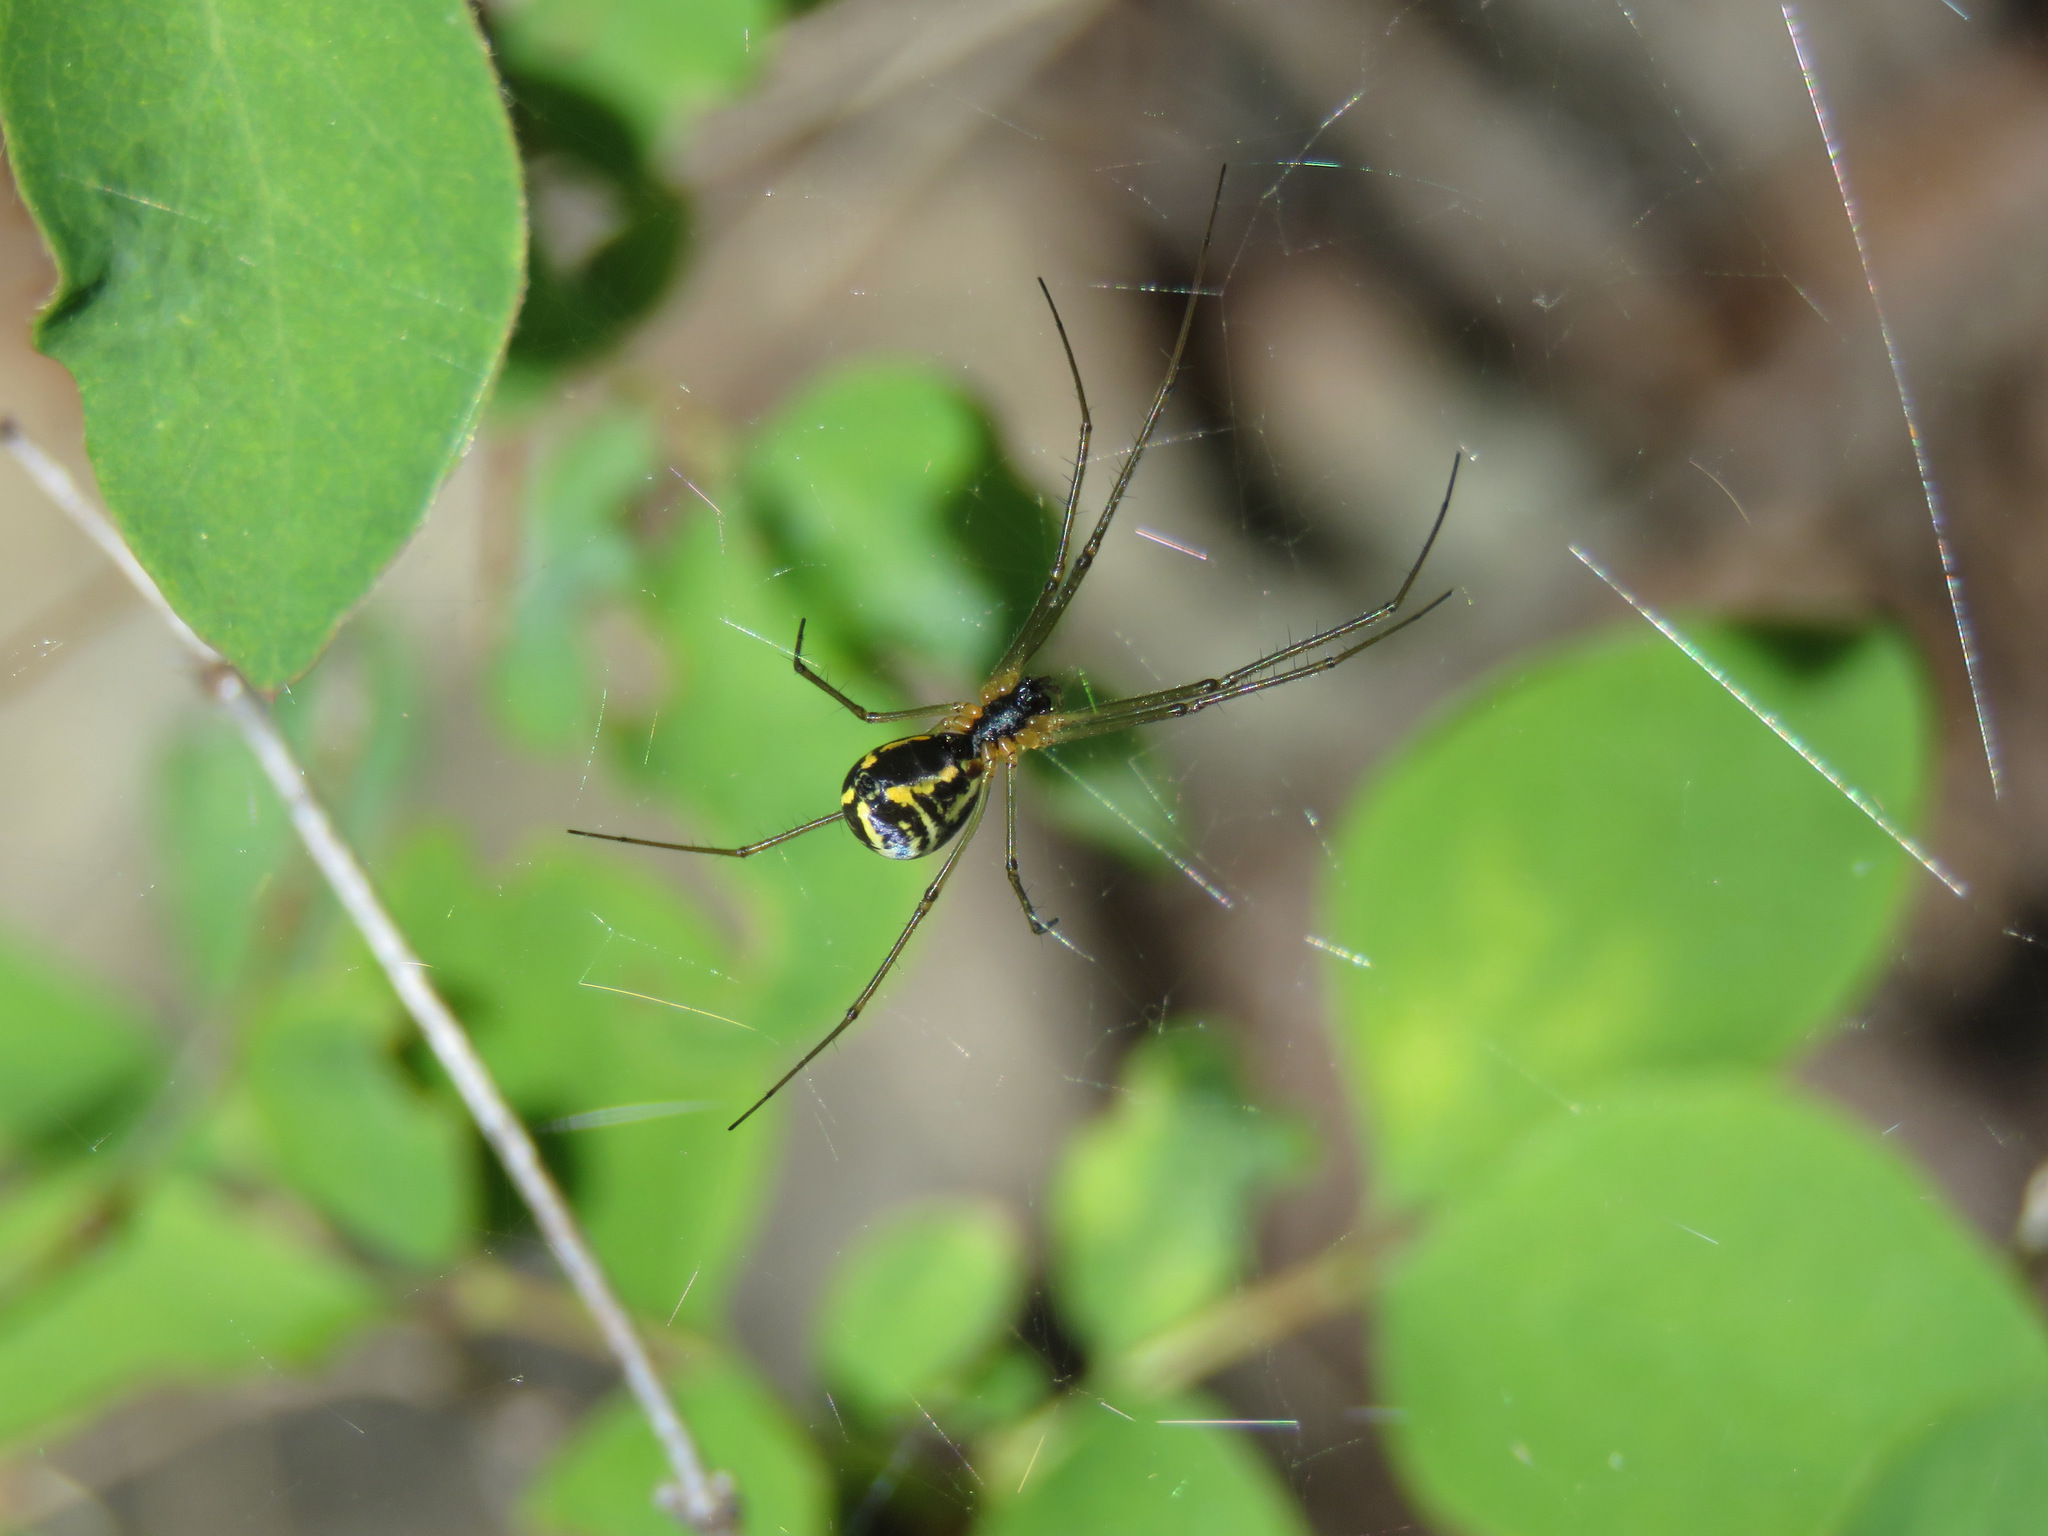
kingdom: Animalia
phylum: Arthropoda
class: Arachnida
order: Araneae
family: Linyphiidae
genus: Neriene
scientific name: Neriene radiata
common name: Filmy dome spider
